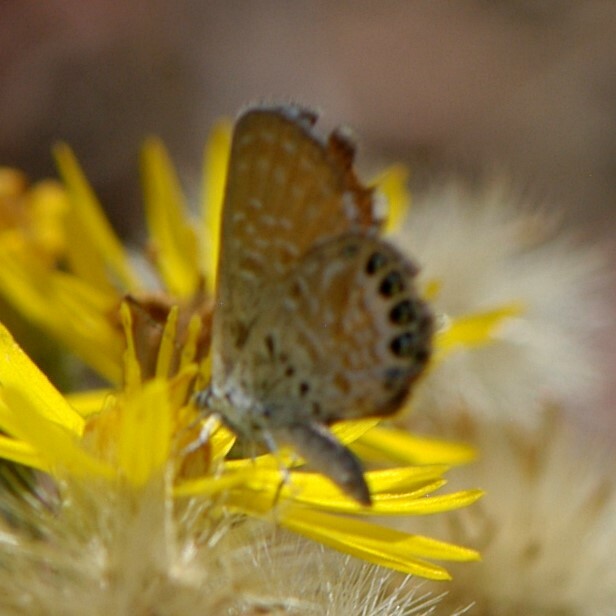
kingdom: Animalia
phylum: Arthropoda
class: Insecta
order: Lepidoptera
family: Lycaenidae
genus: Brephidium
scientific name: Brephidium exilis
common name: Pygmy blue
